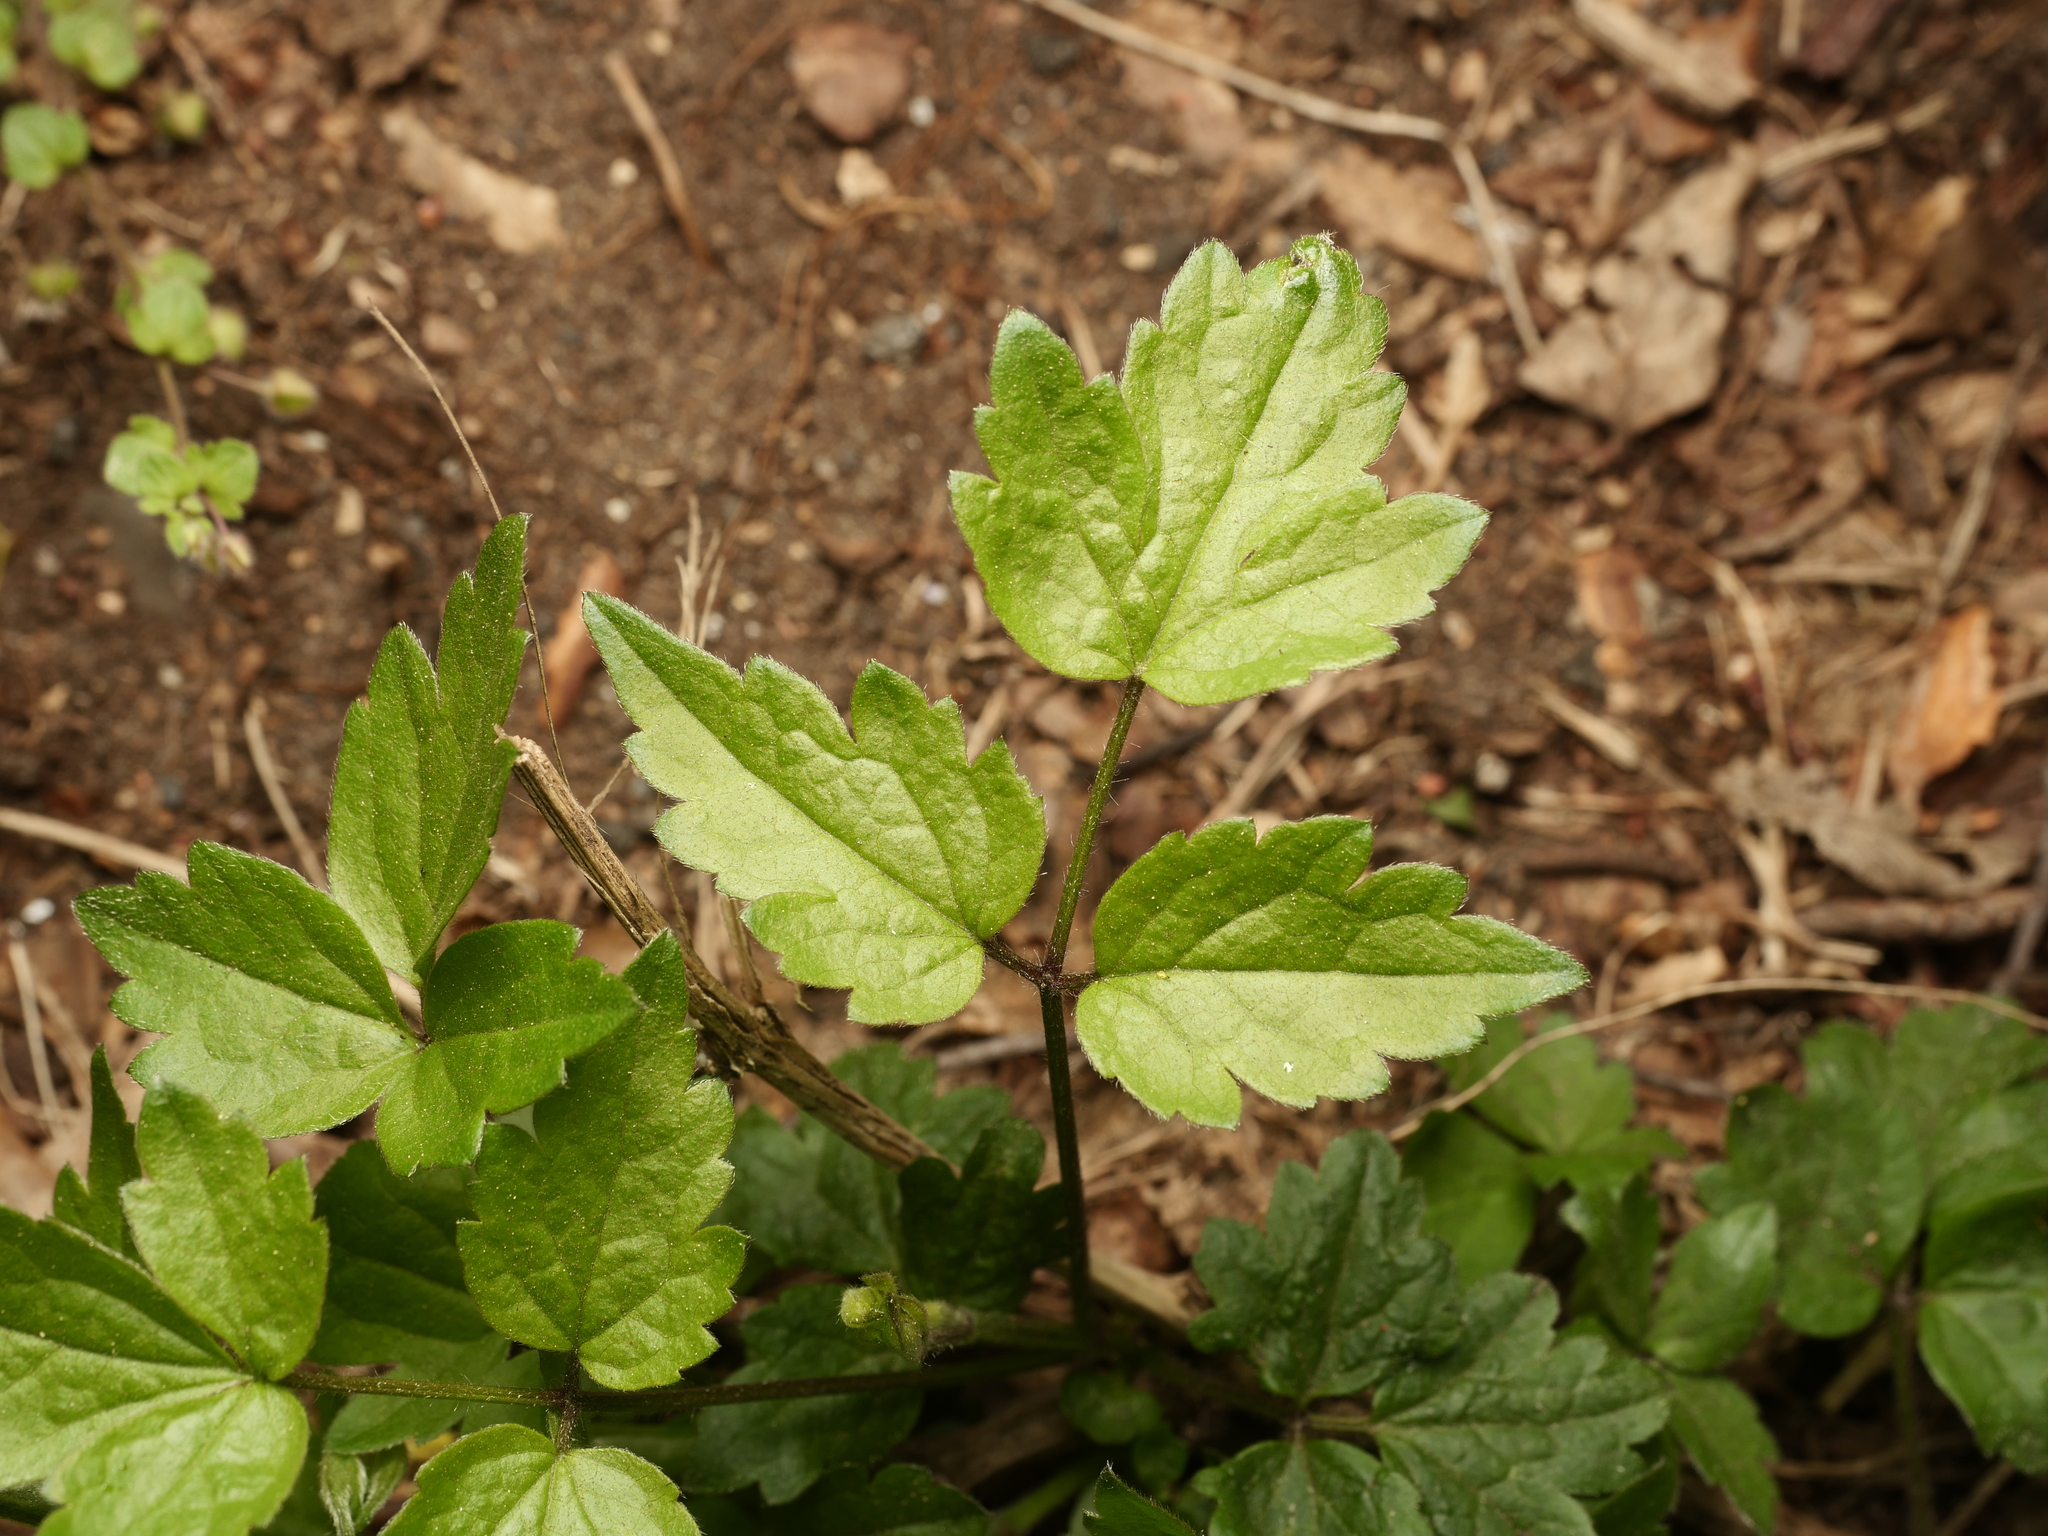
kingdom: Plantae
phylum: Tracheophyta
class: Magnoliopsida
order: Ranunculales
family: Ranunculaceae
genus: Clematis
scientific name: Clematis vitalba
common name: Evergreen clematis
